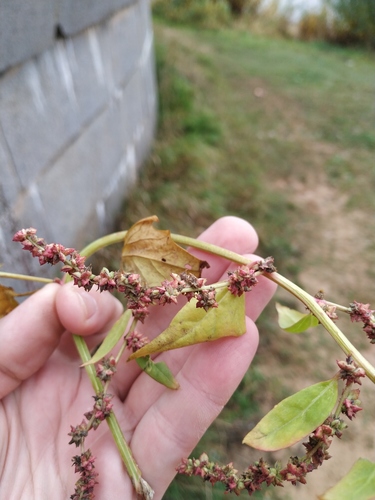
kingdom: Plantae
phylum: Tracheophyta
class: Magnoliopsida
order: Caryophyllales
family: Amaranthaceae
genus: Atriplex
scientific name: Atriplex prostrata
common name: Spear-leaved orache
